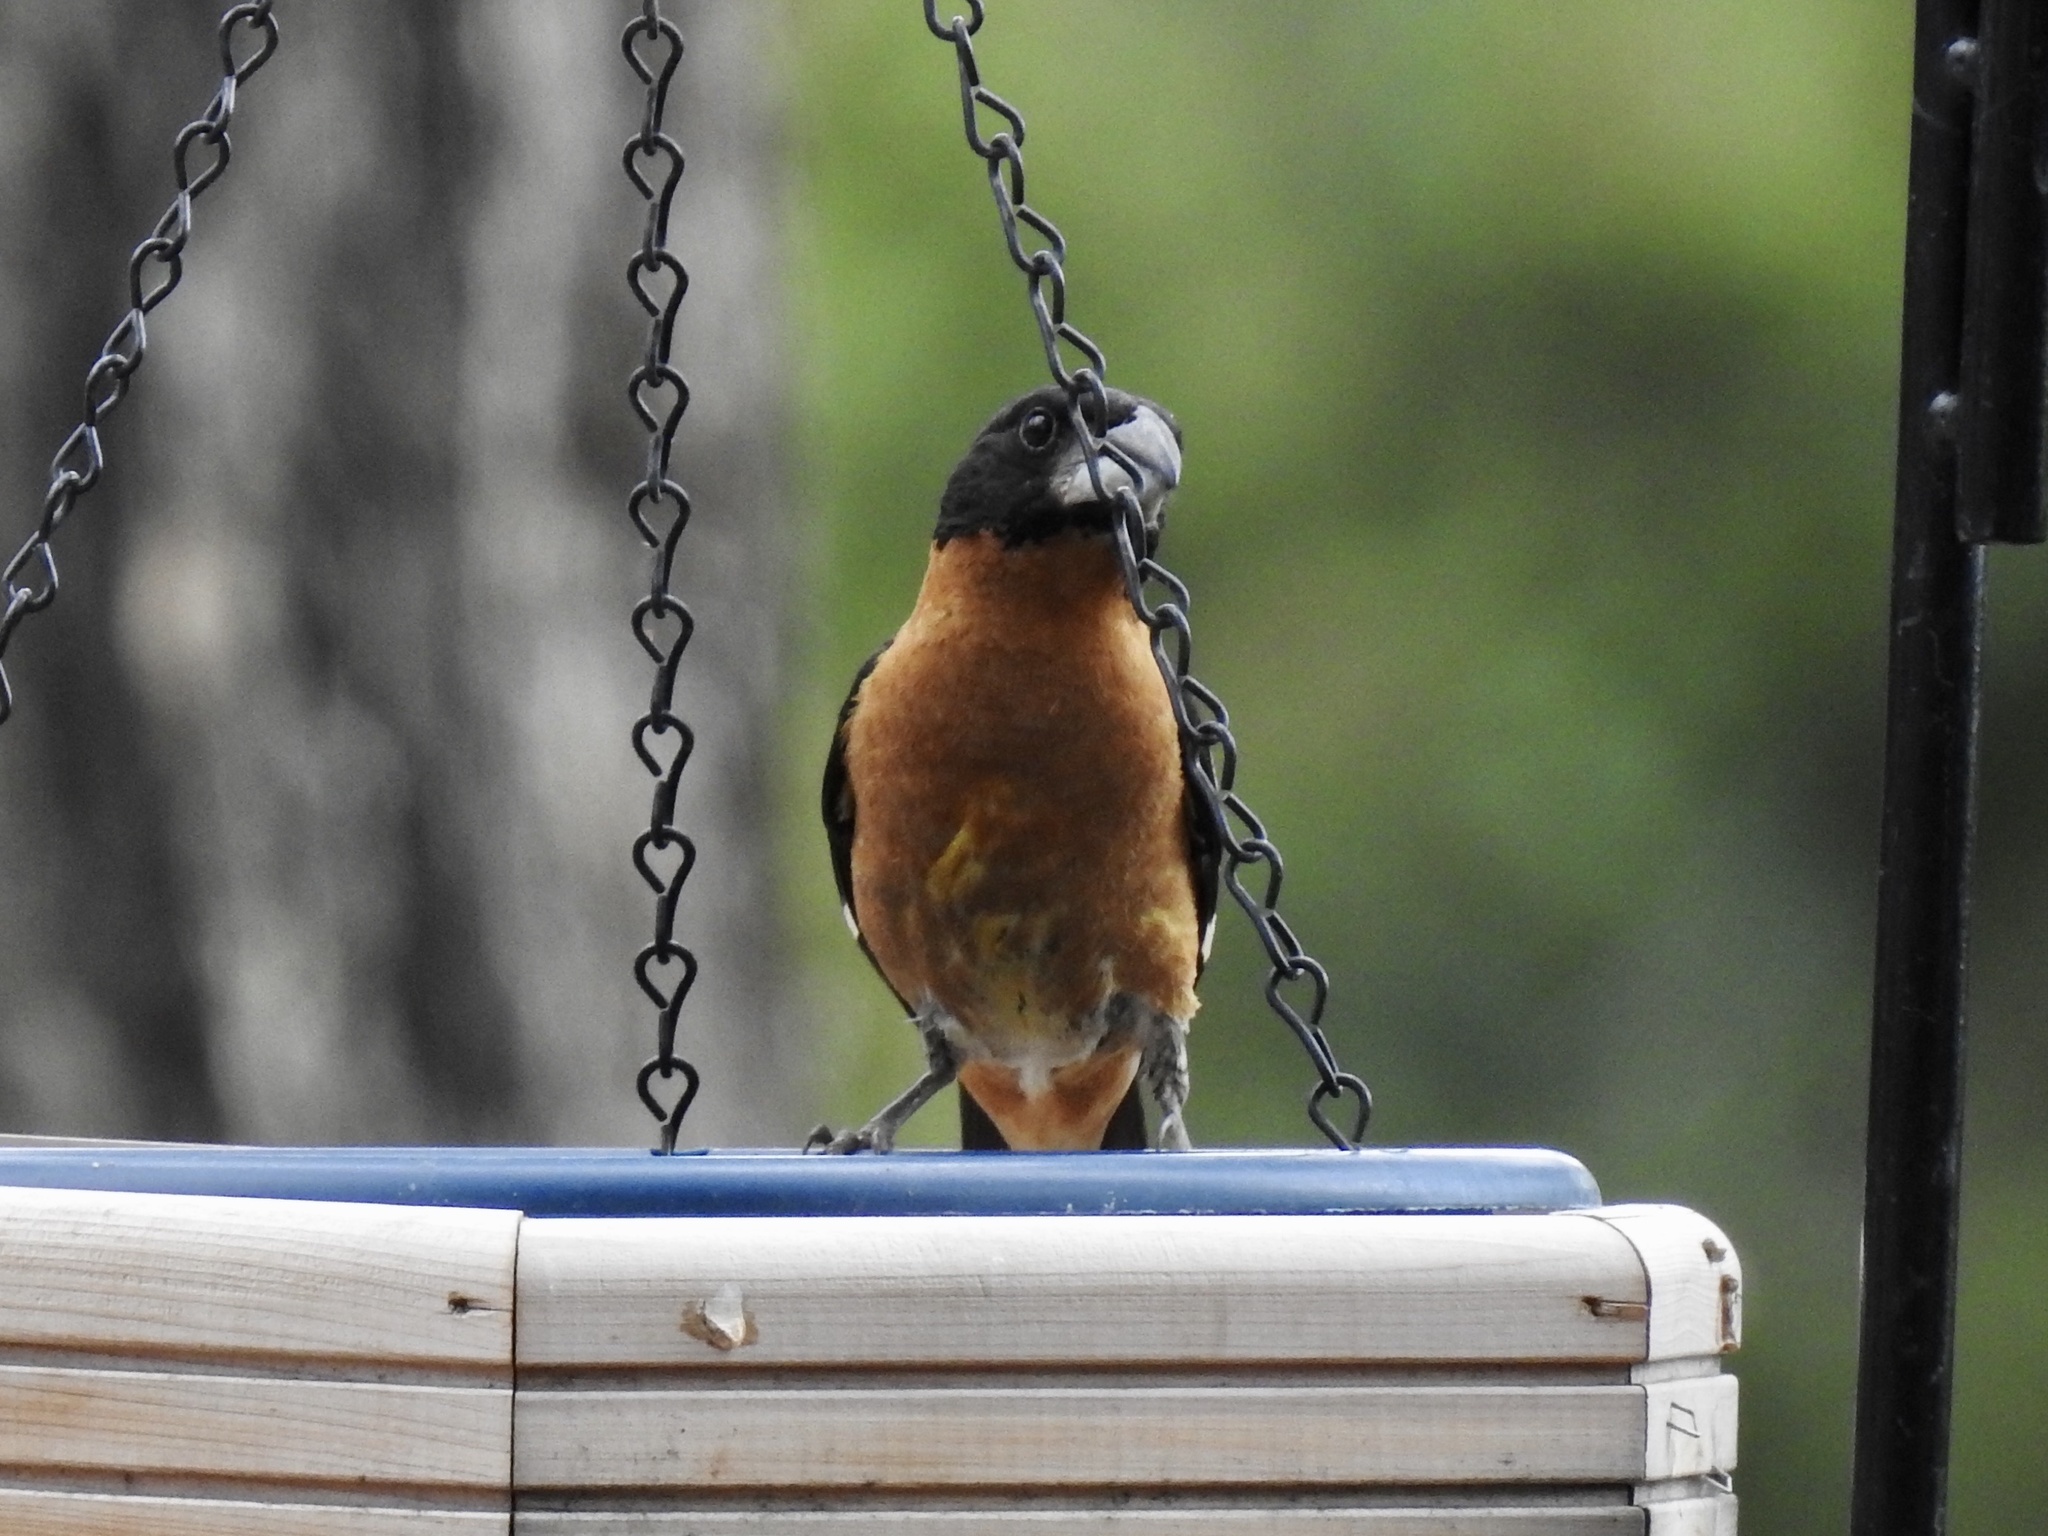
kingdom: Animalia
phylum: Chordata
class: Aves
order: Passeriformes
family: Cardinalidae
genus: Pheucticus
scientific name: Pheucticus melanocephalus
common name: Black-headed grosbeak
